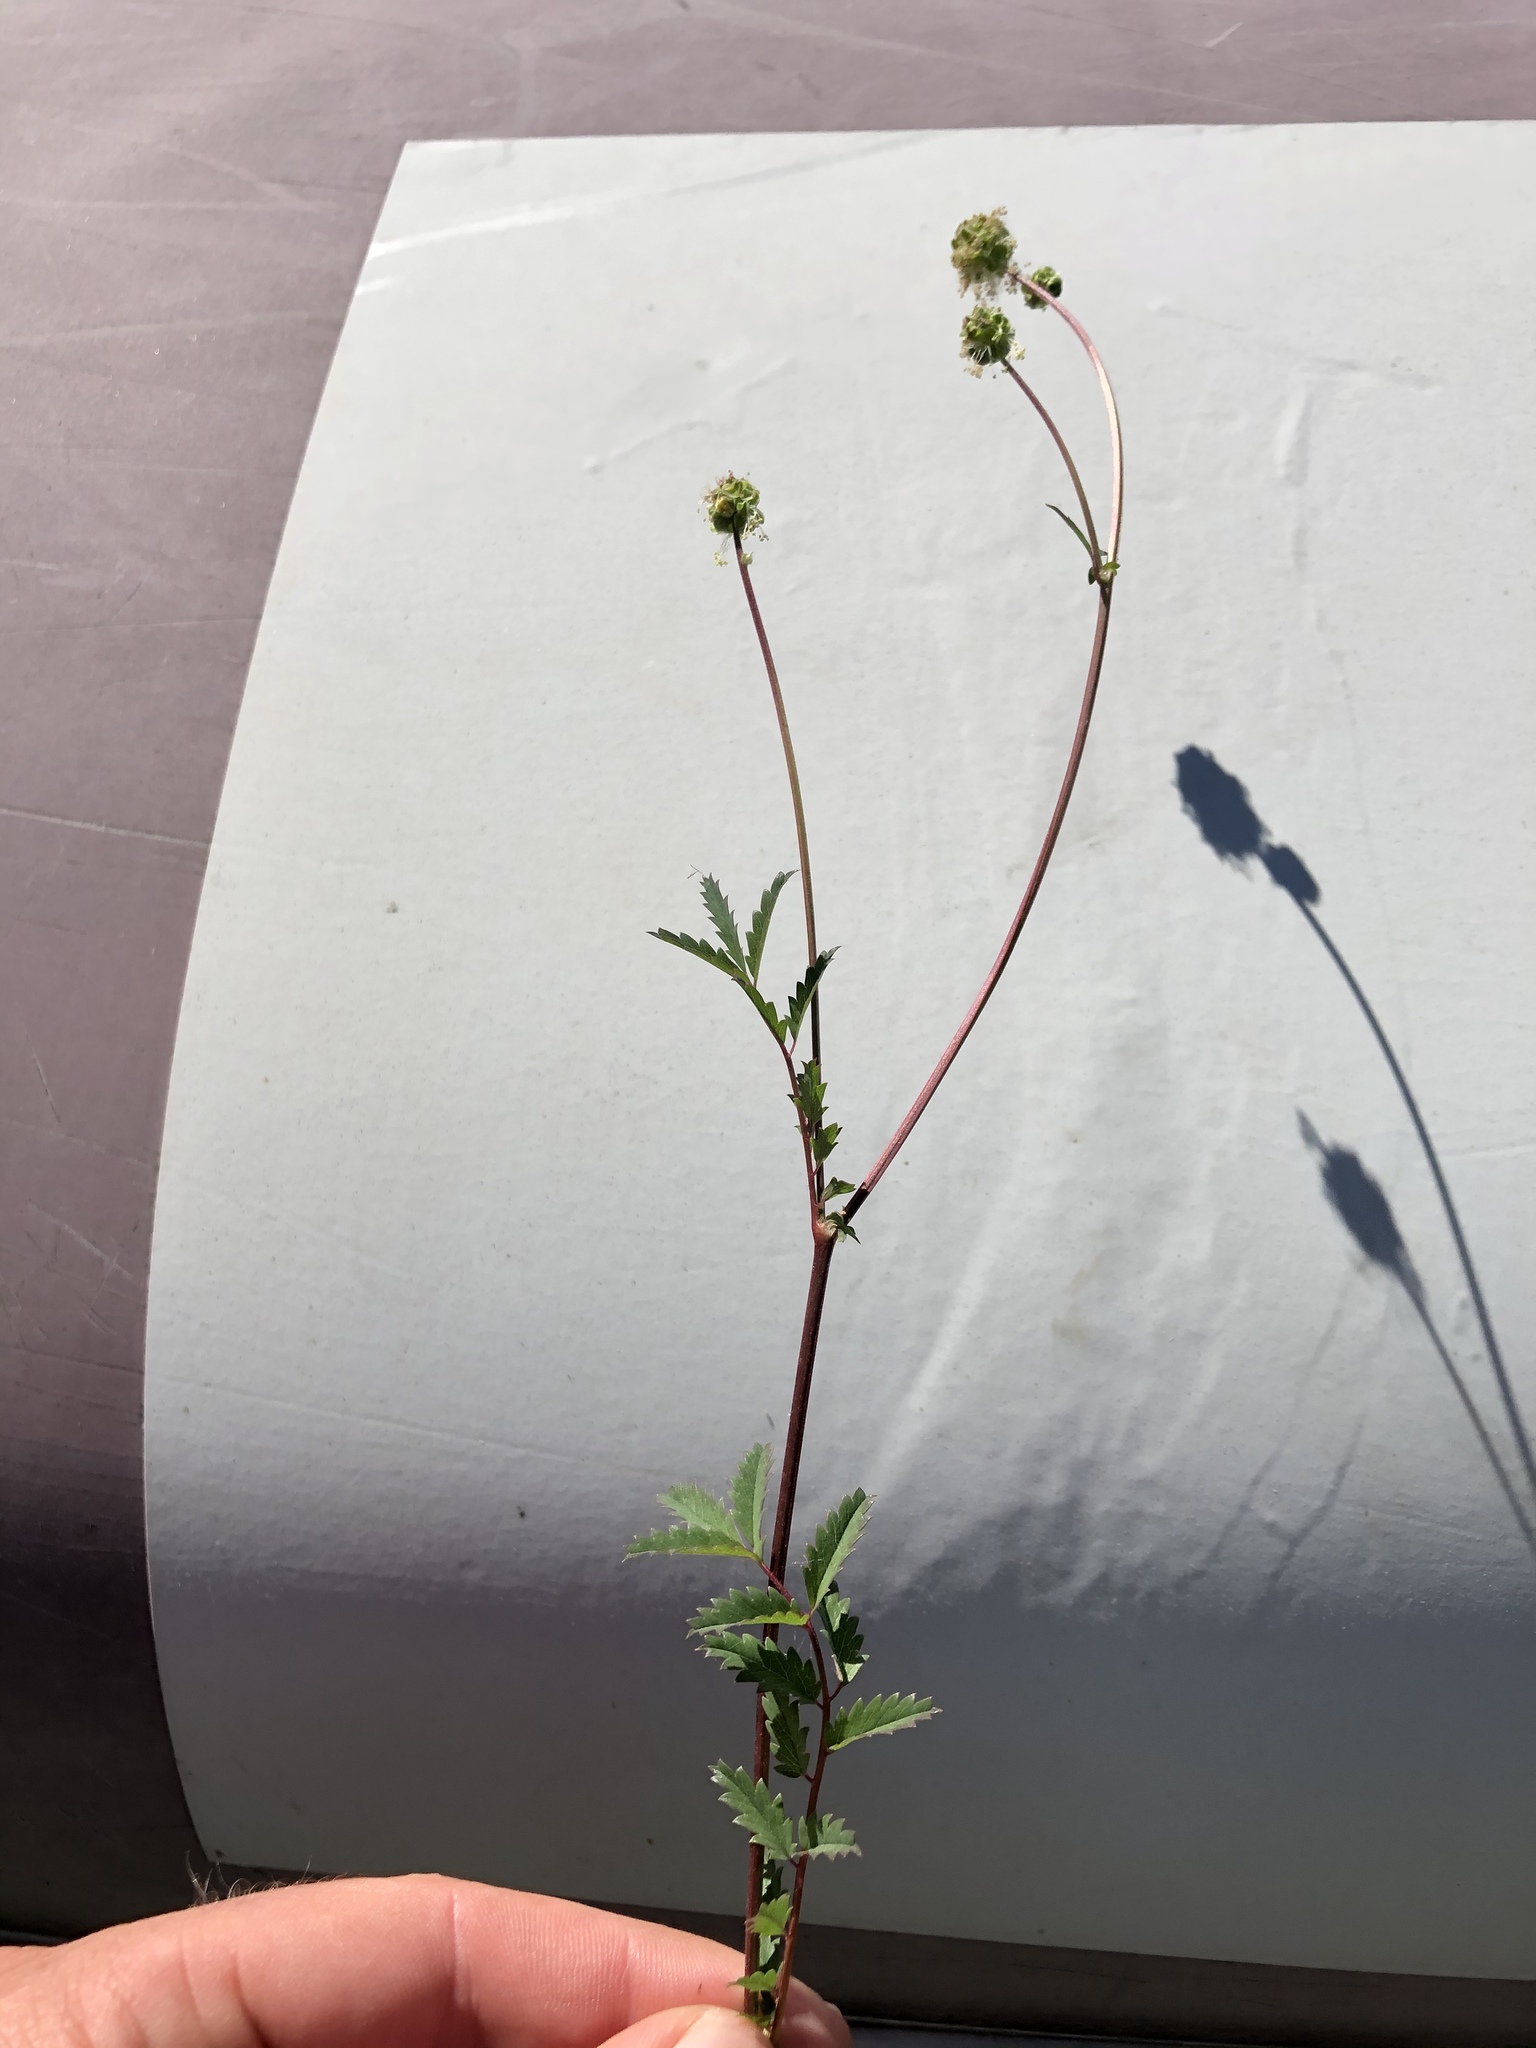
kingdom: Plantae
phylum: Tracheophyta
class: Magnoliopsida
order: Rosales
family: Rosaceae
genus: Poterium
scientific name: Poterium sanguisorba
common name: Salad burnet
